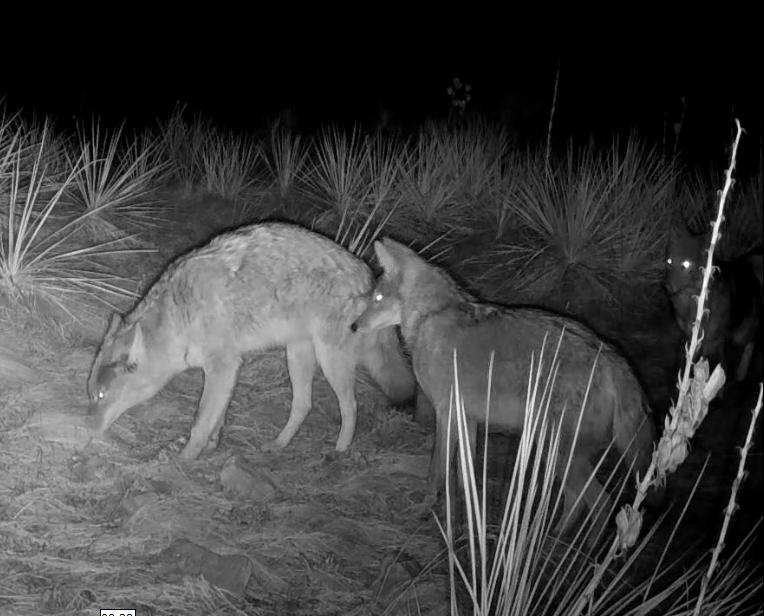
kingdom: Animalia
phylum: Chordata
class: Mammalia
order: Carnivora
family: Canidae
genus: Canis
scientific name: Canis latrans
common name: Coyote
